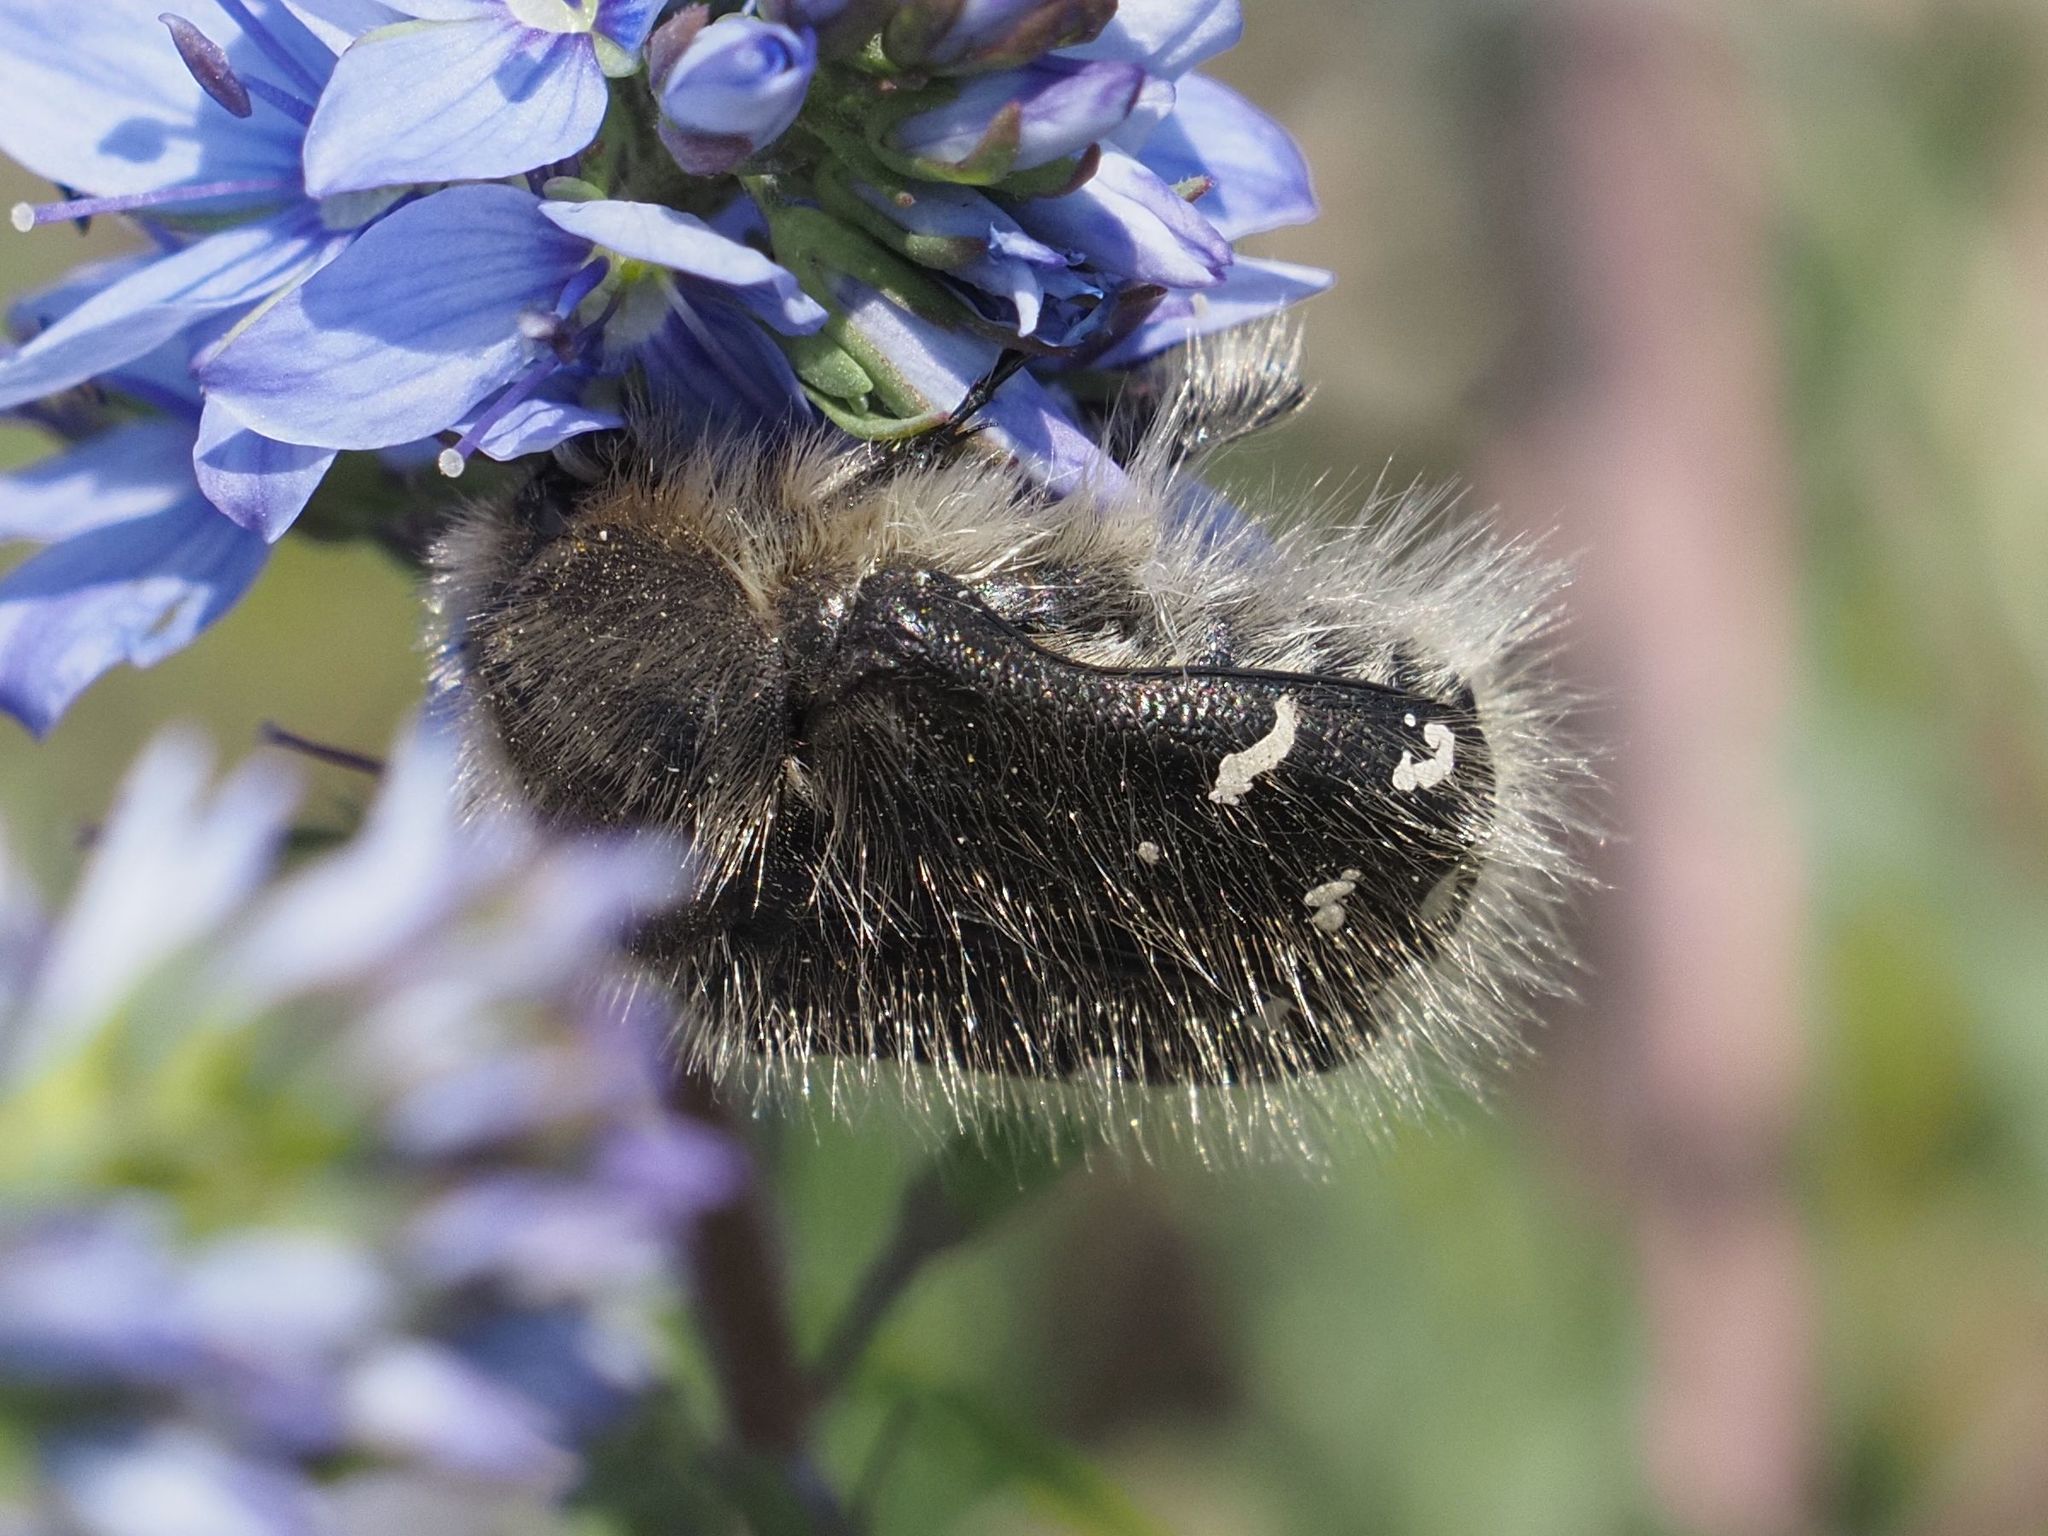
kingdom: Animalia
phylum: Arthropoda
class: Insecta
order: Coleoptera
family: Scarabaeidae
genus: Tropinota
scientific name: Tropinota hirta
